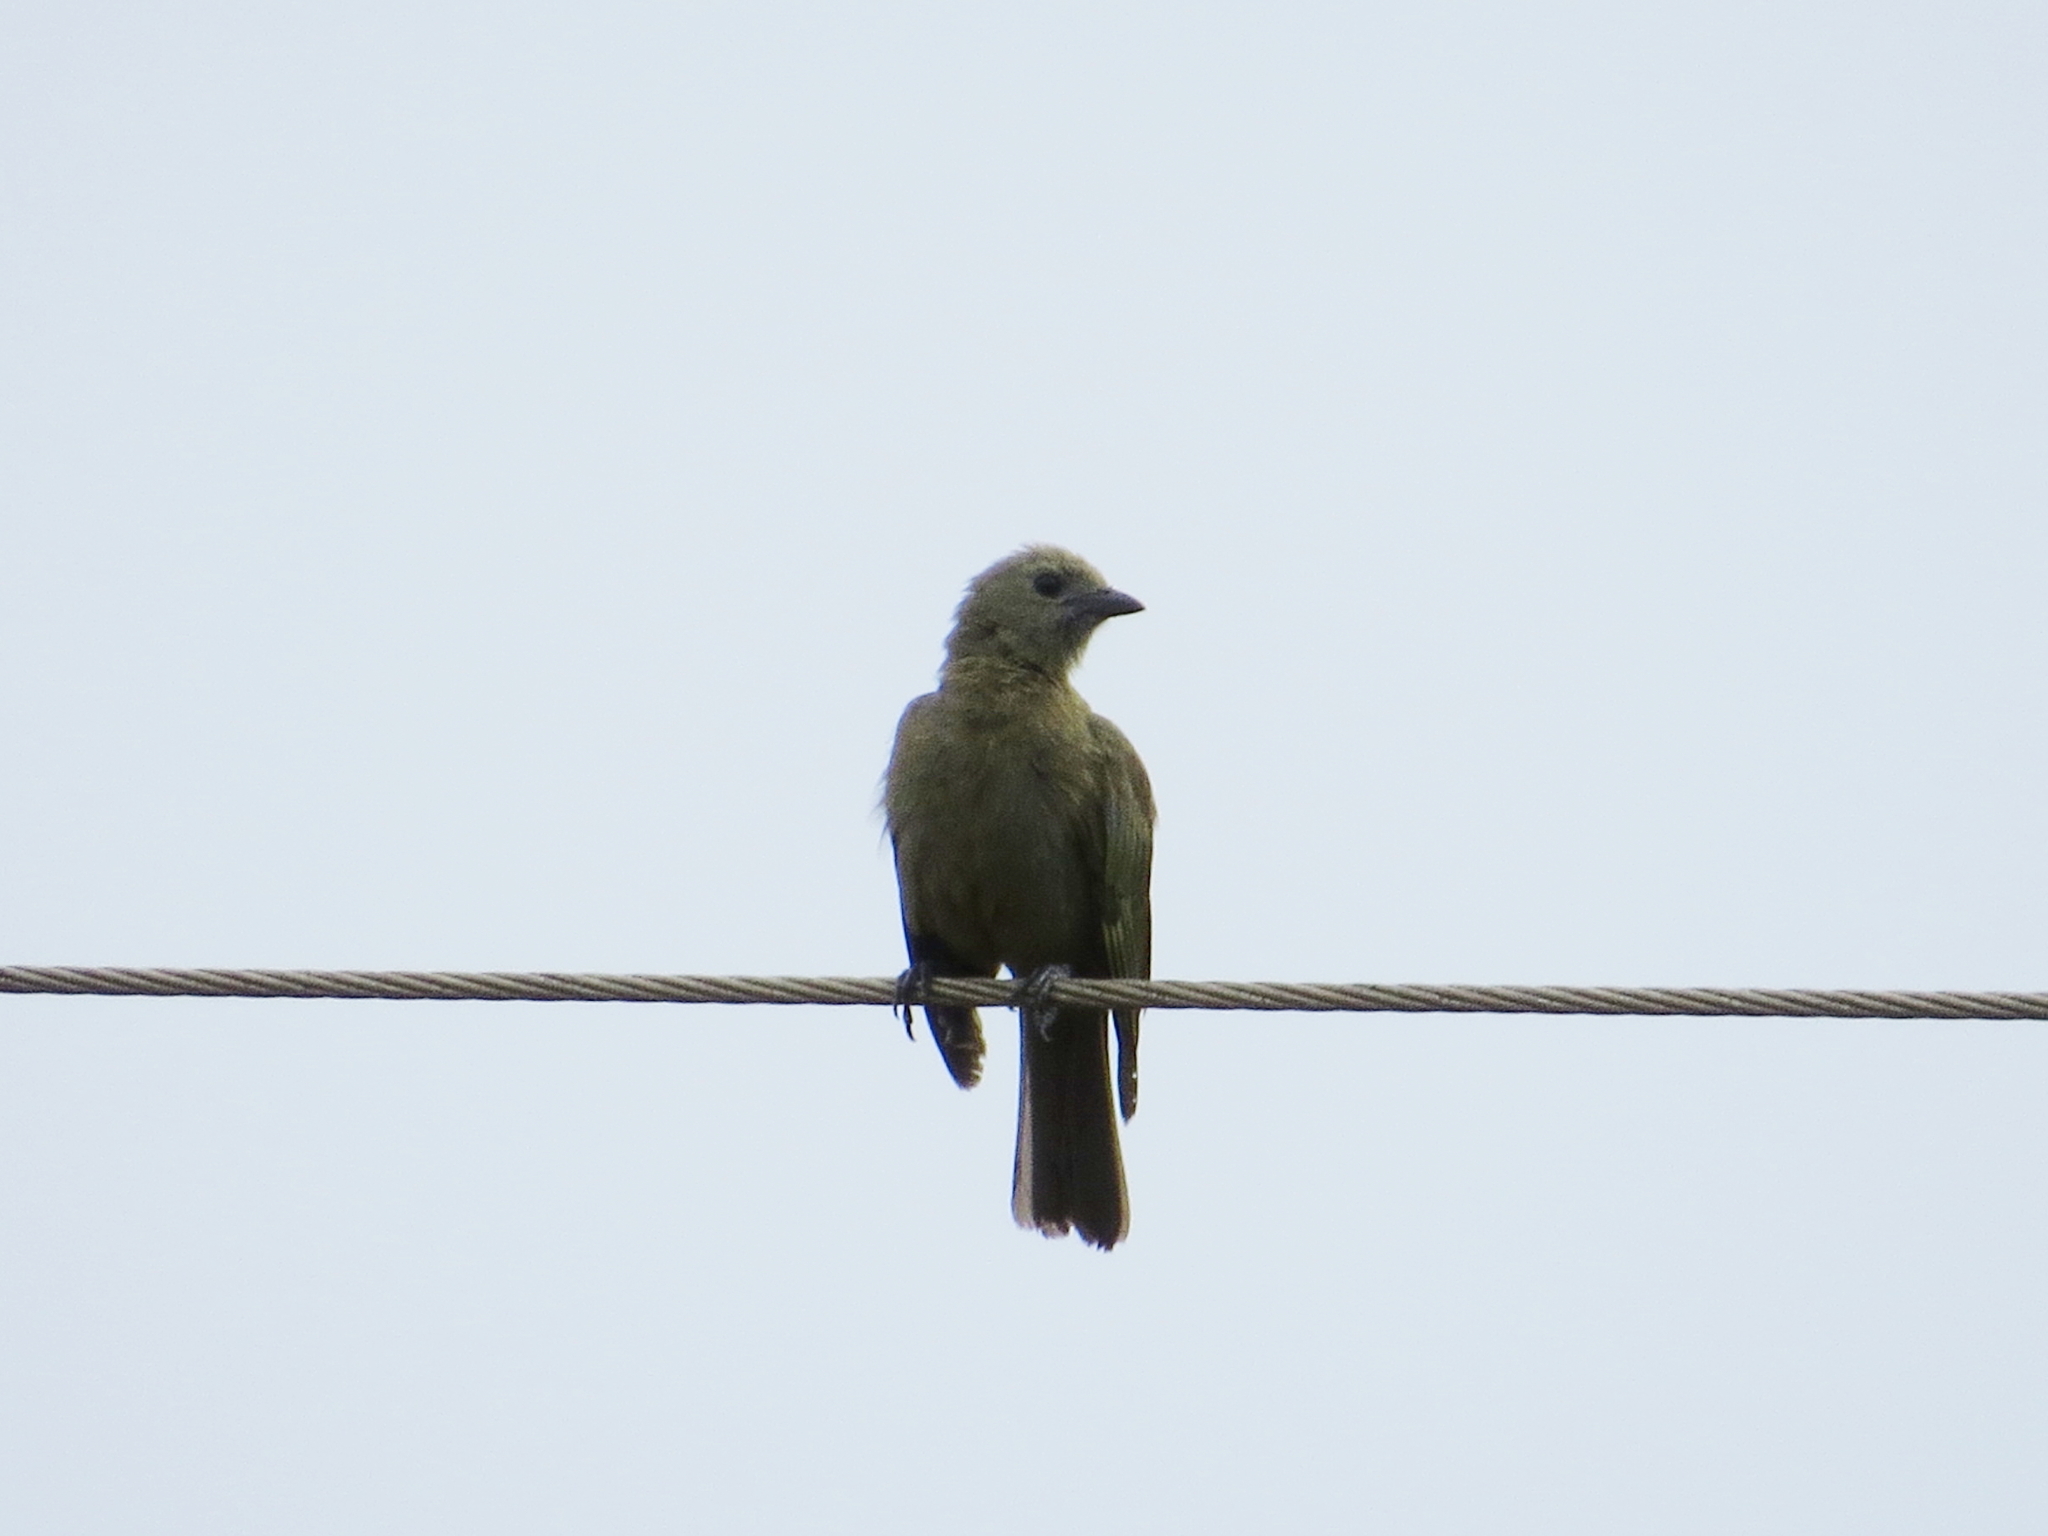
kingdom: Animalia
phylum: Chordata
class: Aves
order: Passeriformes
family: Thraupidae
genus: Thraupis
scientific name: Thraupis palmarum
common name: Palm tanager
